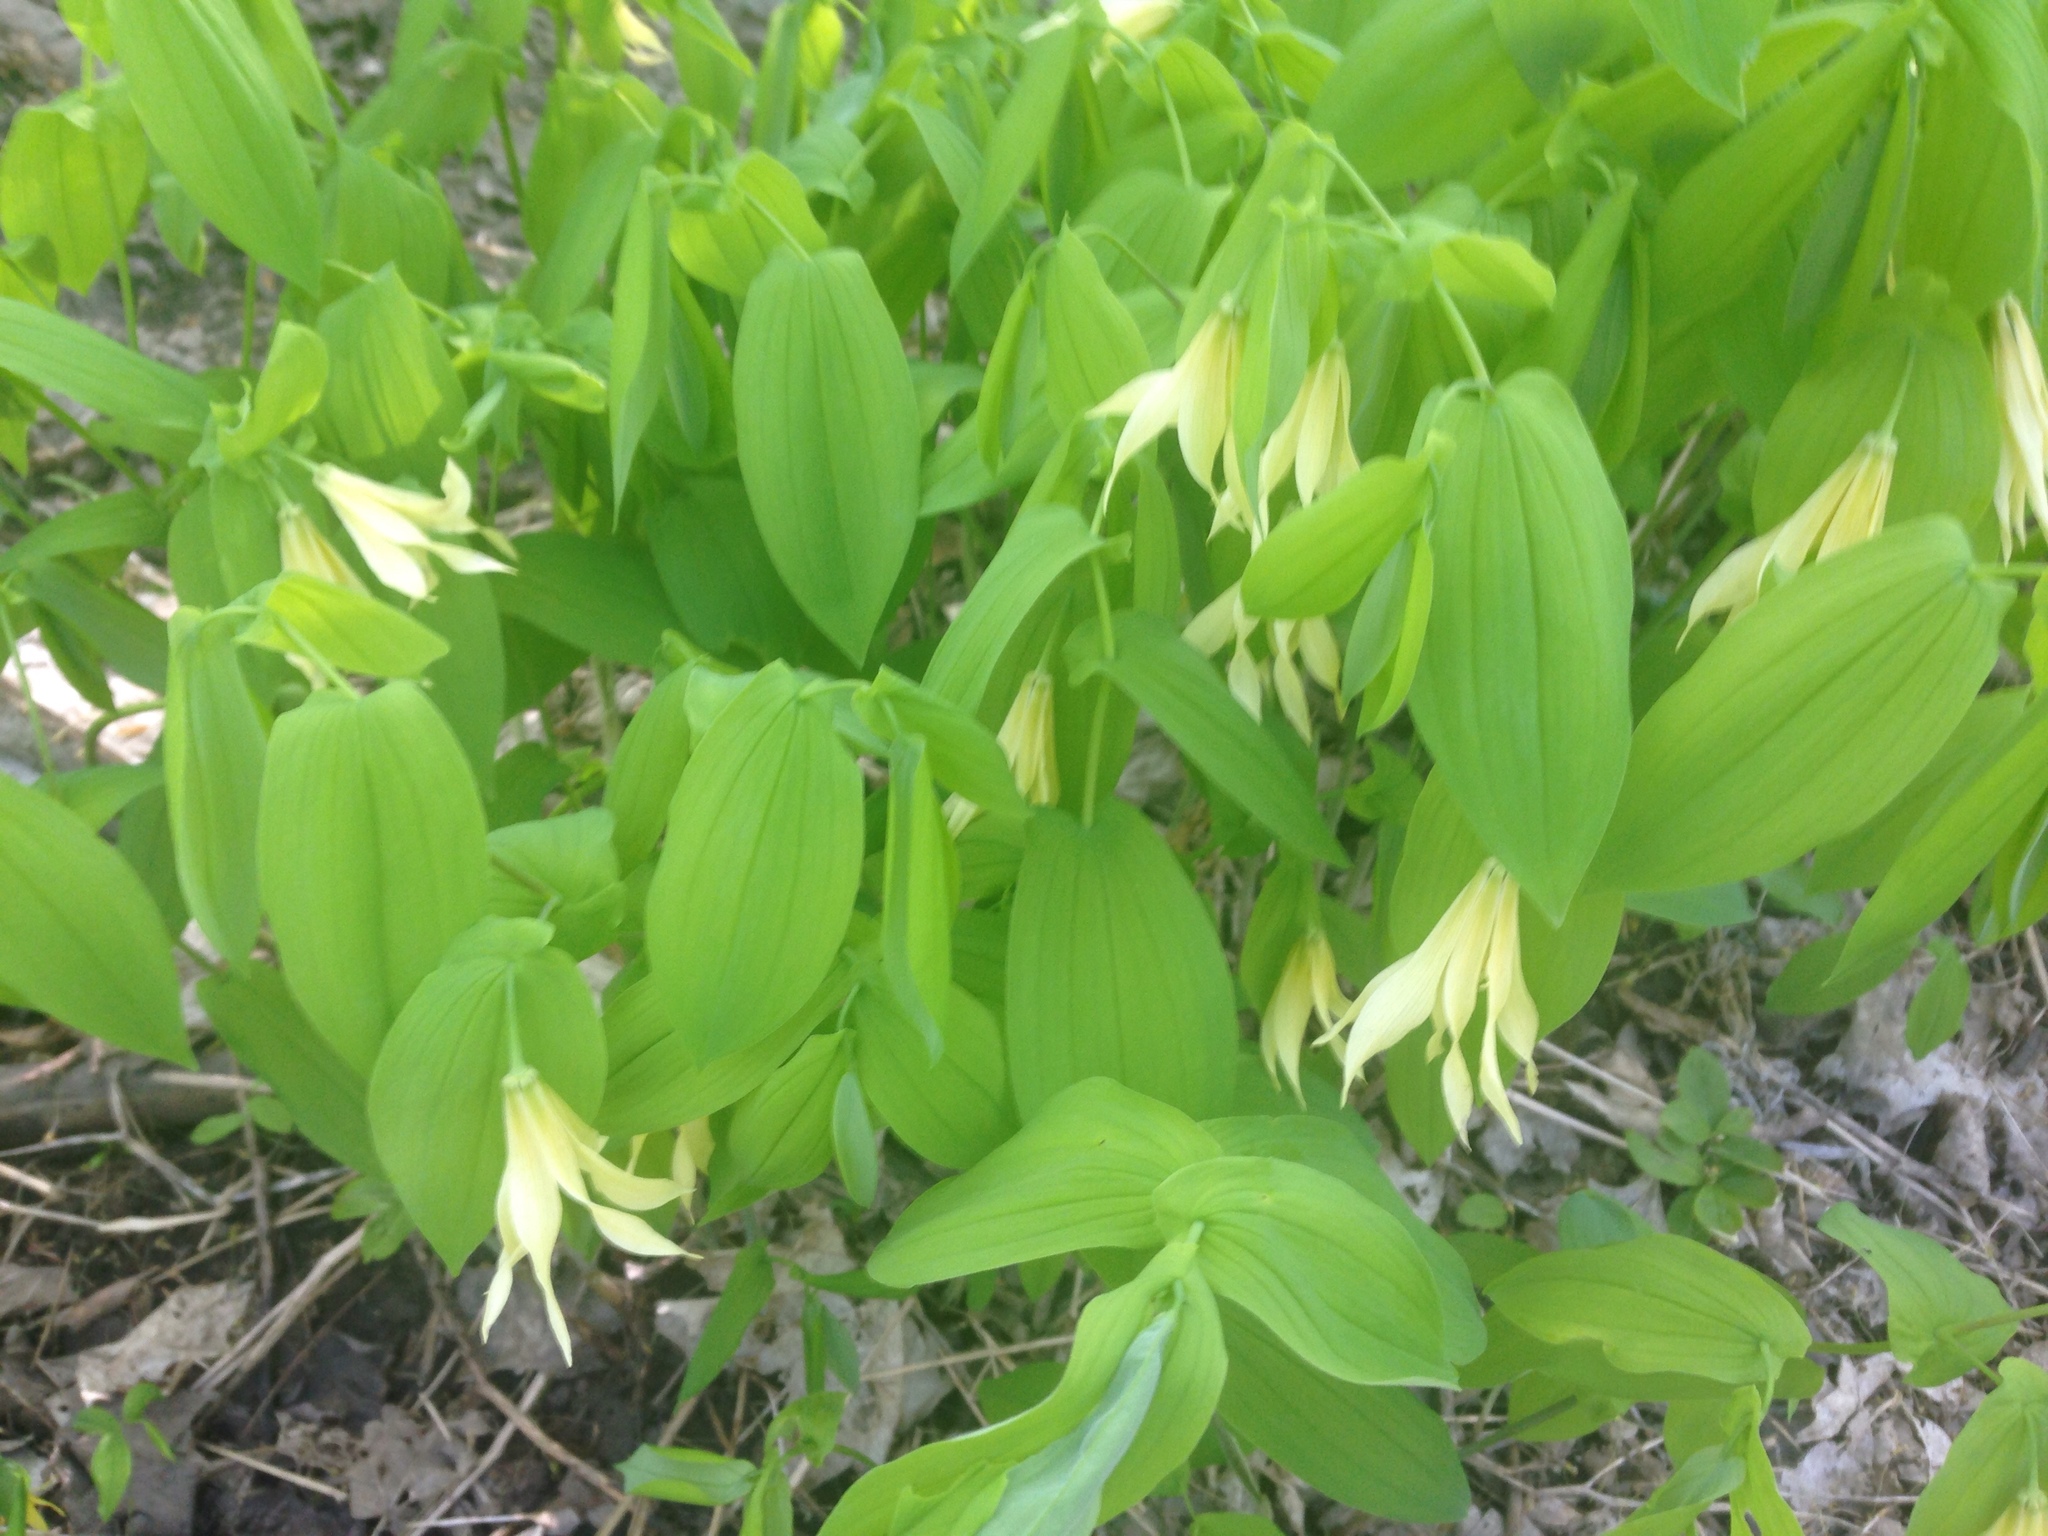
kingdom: Plantae
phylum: Tracheophyta
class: Liliopsida
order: Liliales
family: Colchicaceae
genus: Uvularia
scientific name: Uvularia grandiflora
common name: Bellwort
